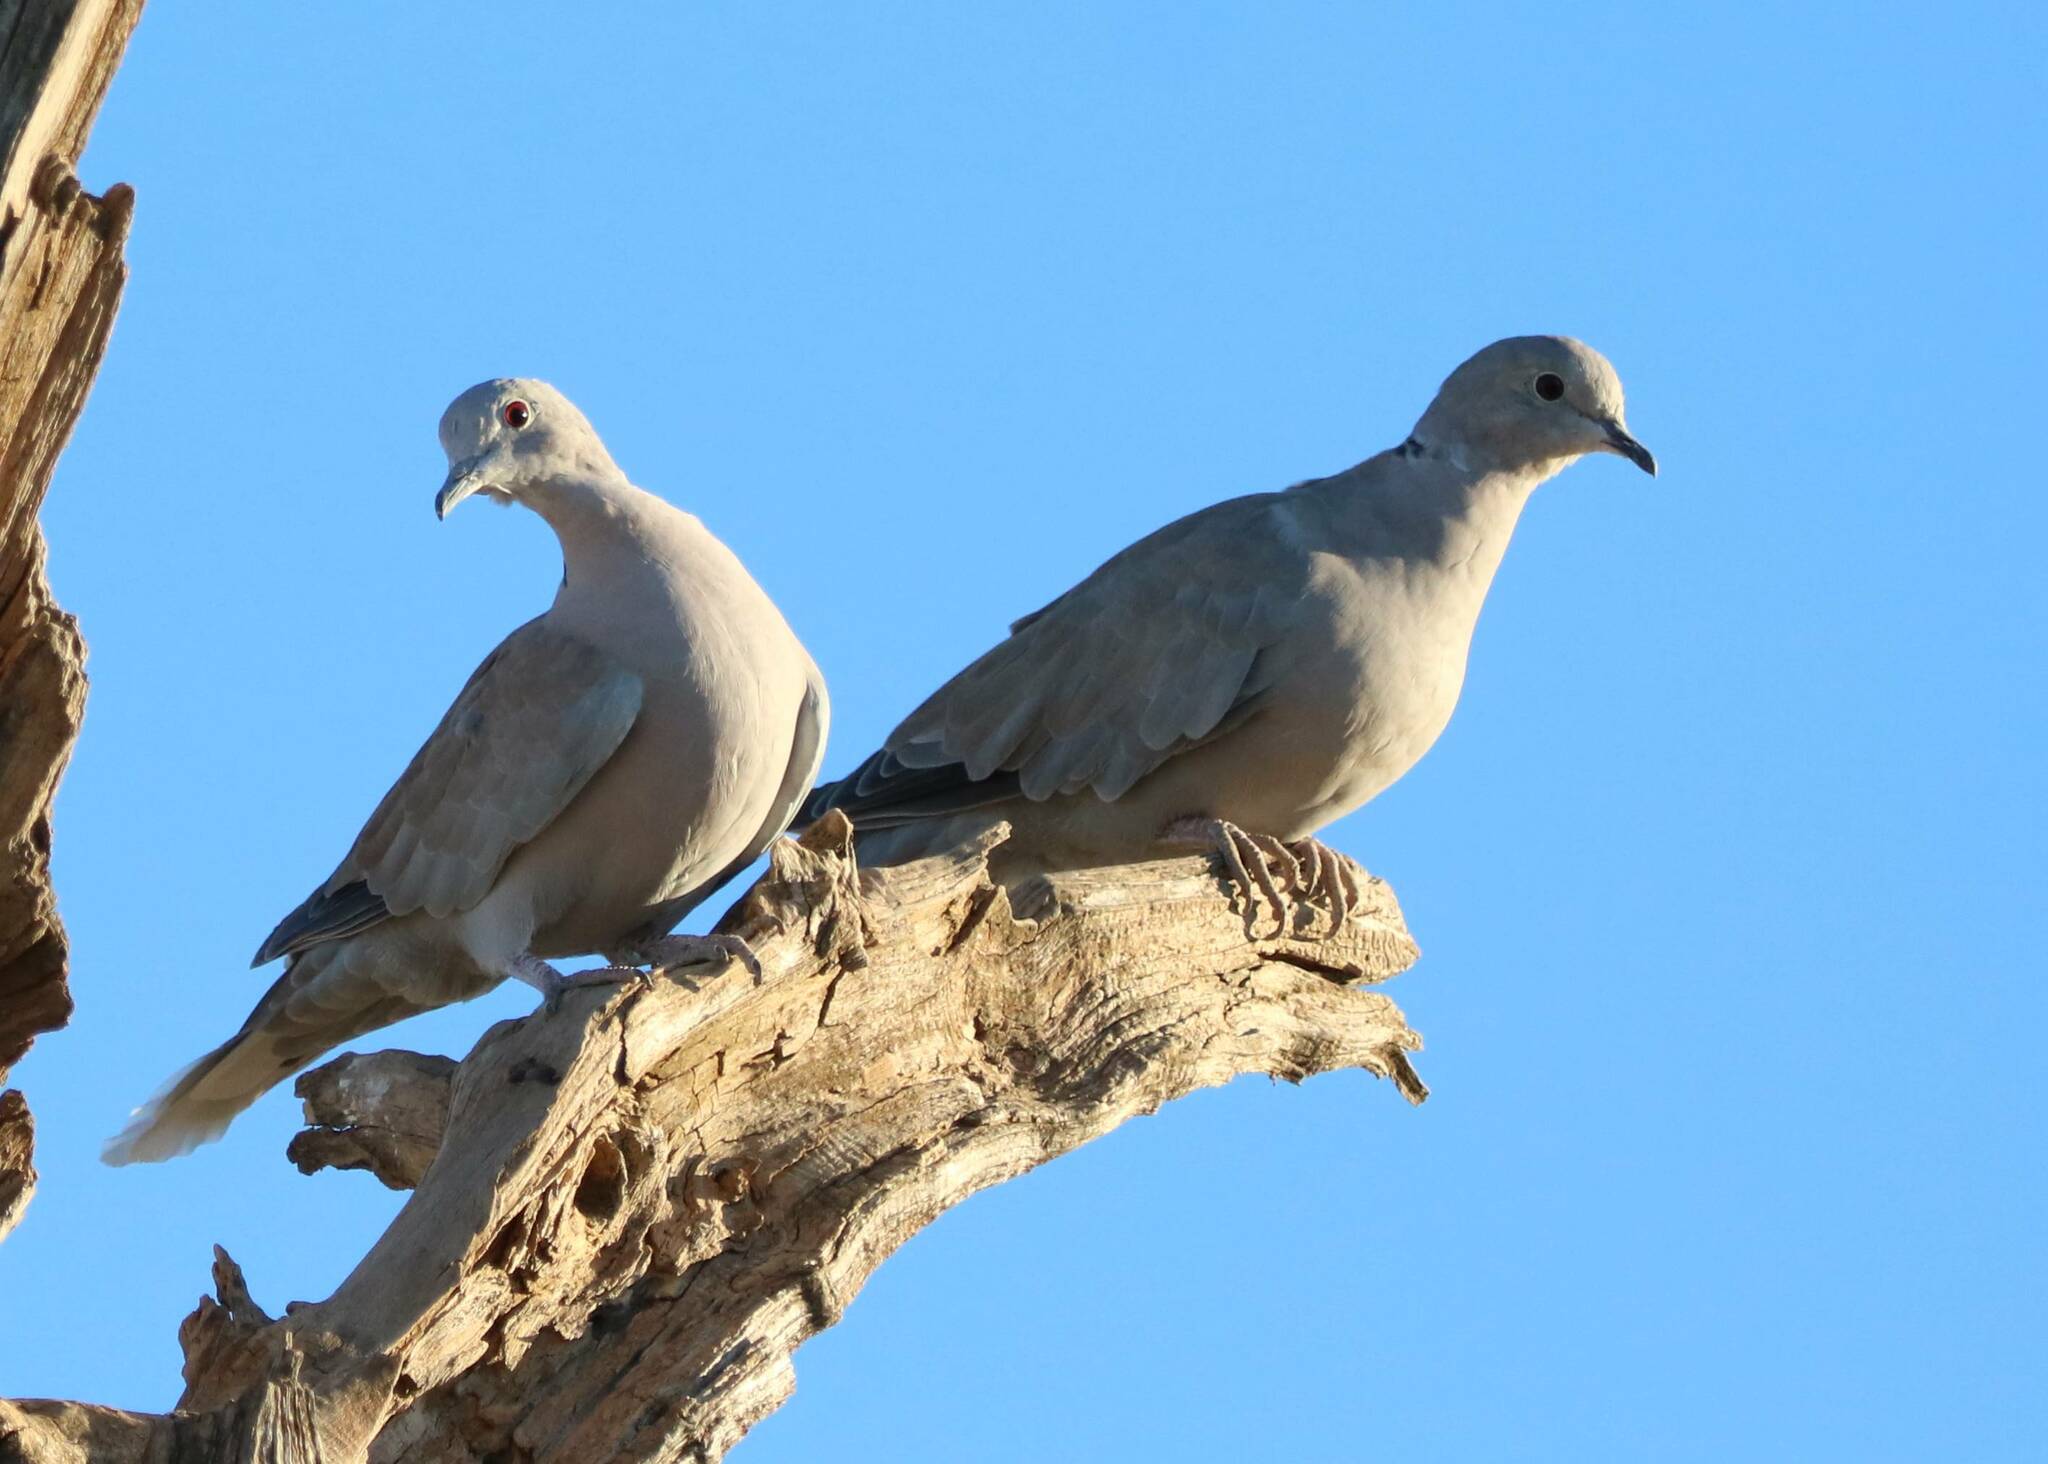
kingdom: Animalia
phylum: Chordata
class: Aves
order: Columbiformes
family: Columbidae
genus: Streptopelia
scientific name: Streptopelia decaocto
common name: Eurasian collared dove
